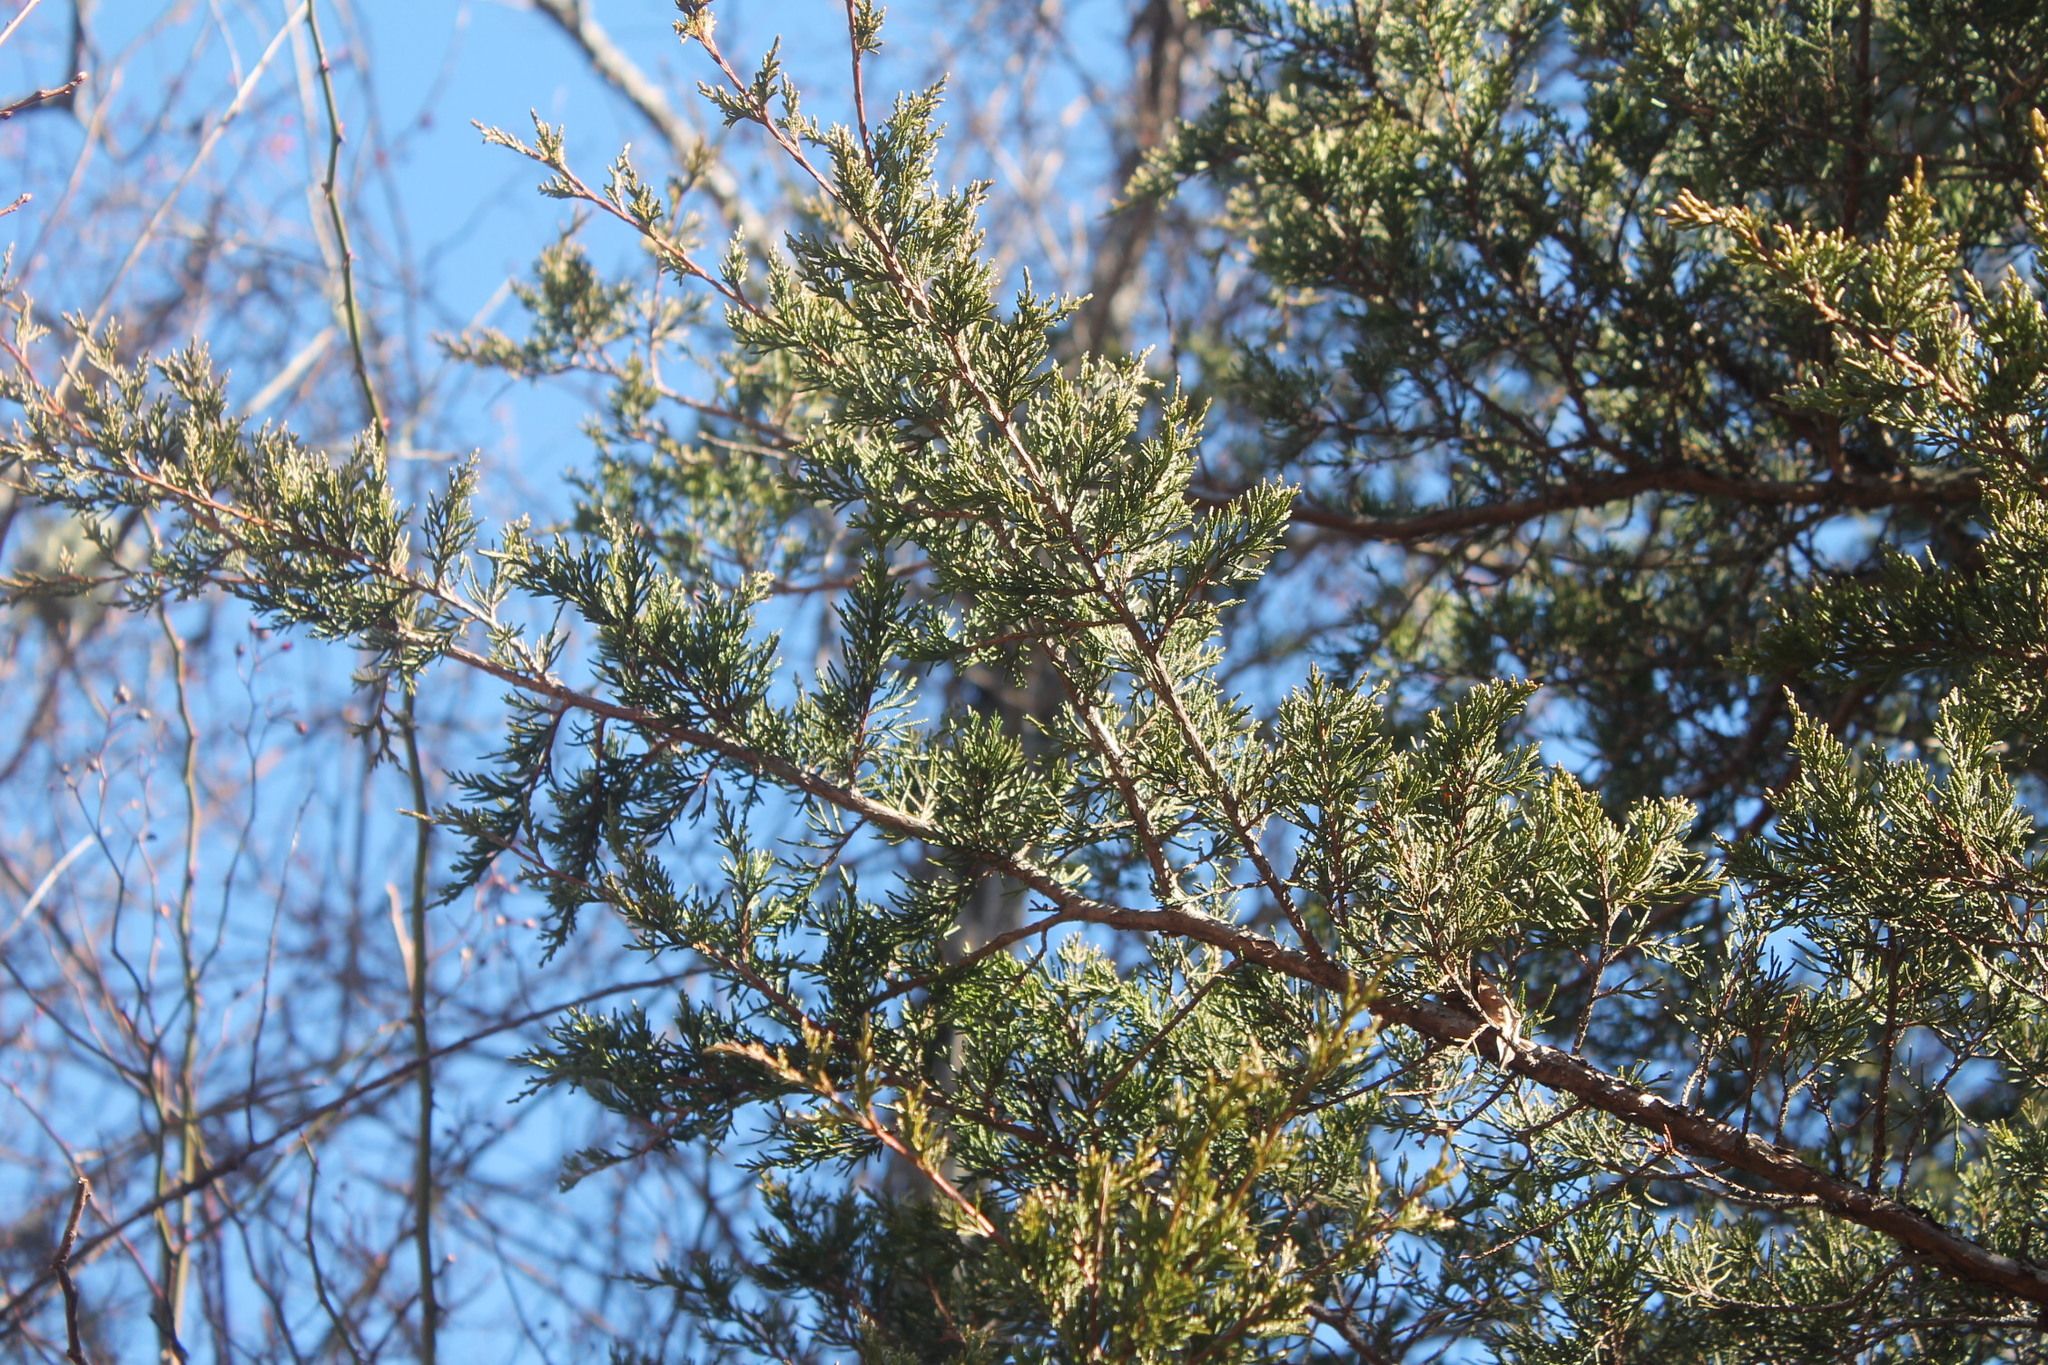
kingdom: Plantae
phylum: Tracheophyta
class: Pinopsida
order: Pinales
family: Cupressaceae
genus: Juniperus
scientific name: Juniperus virginiana
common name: Red juniper
